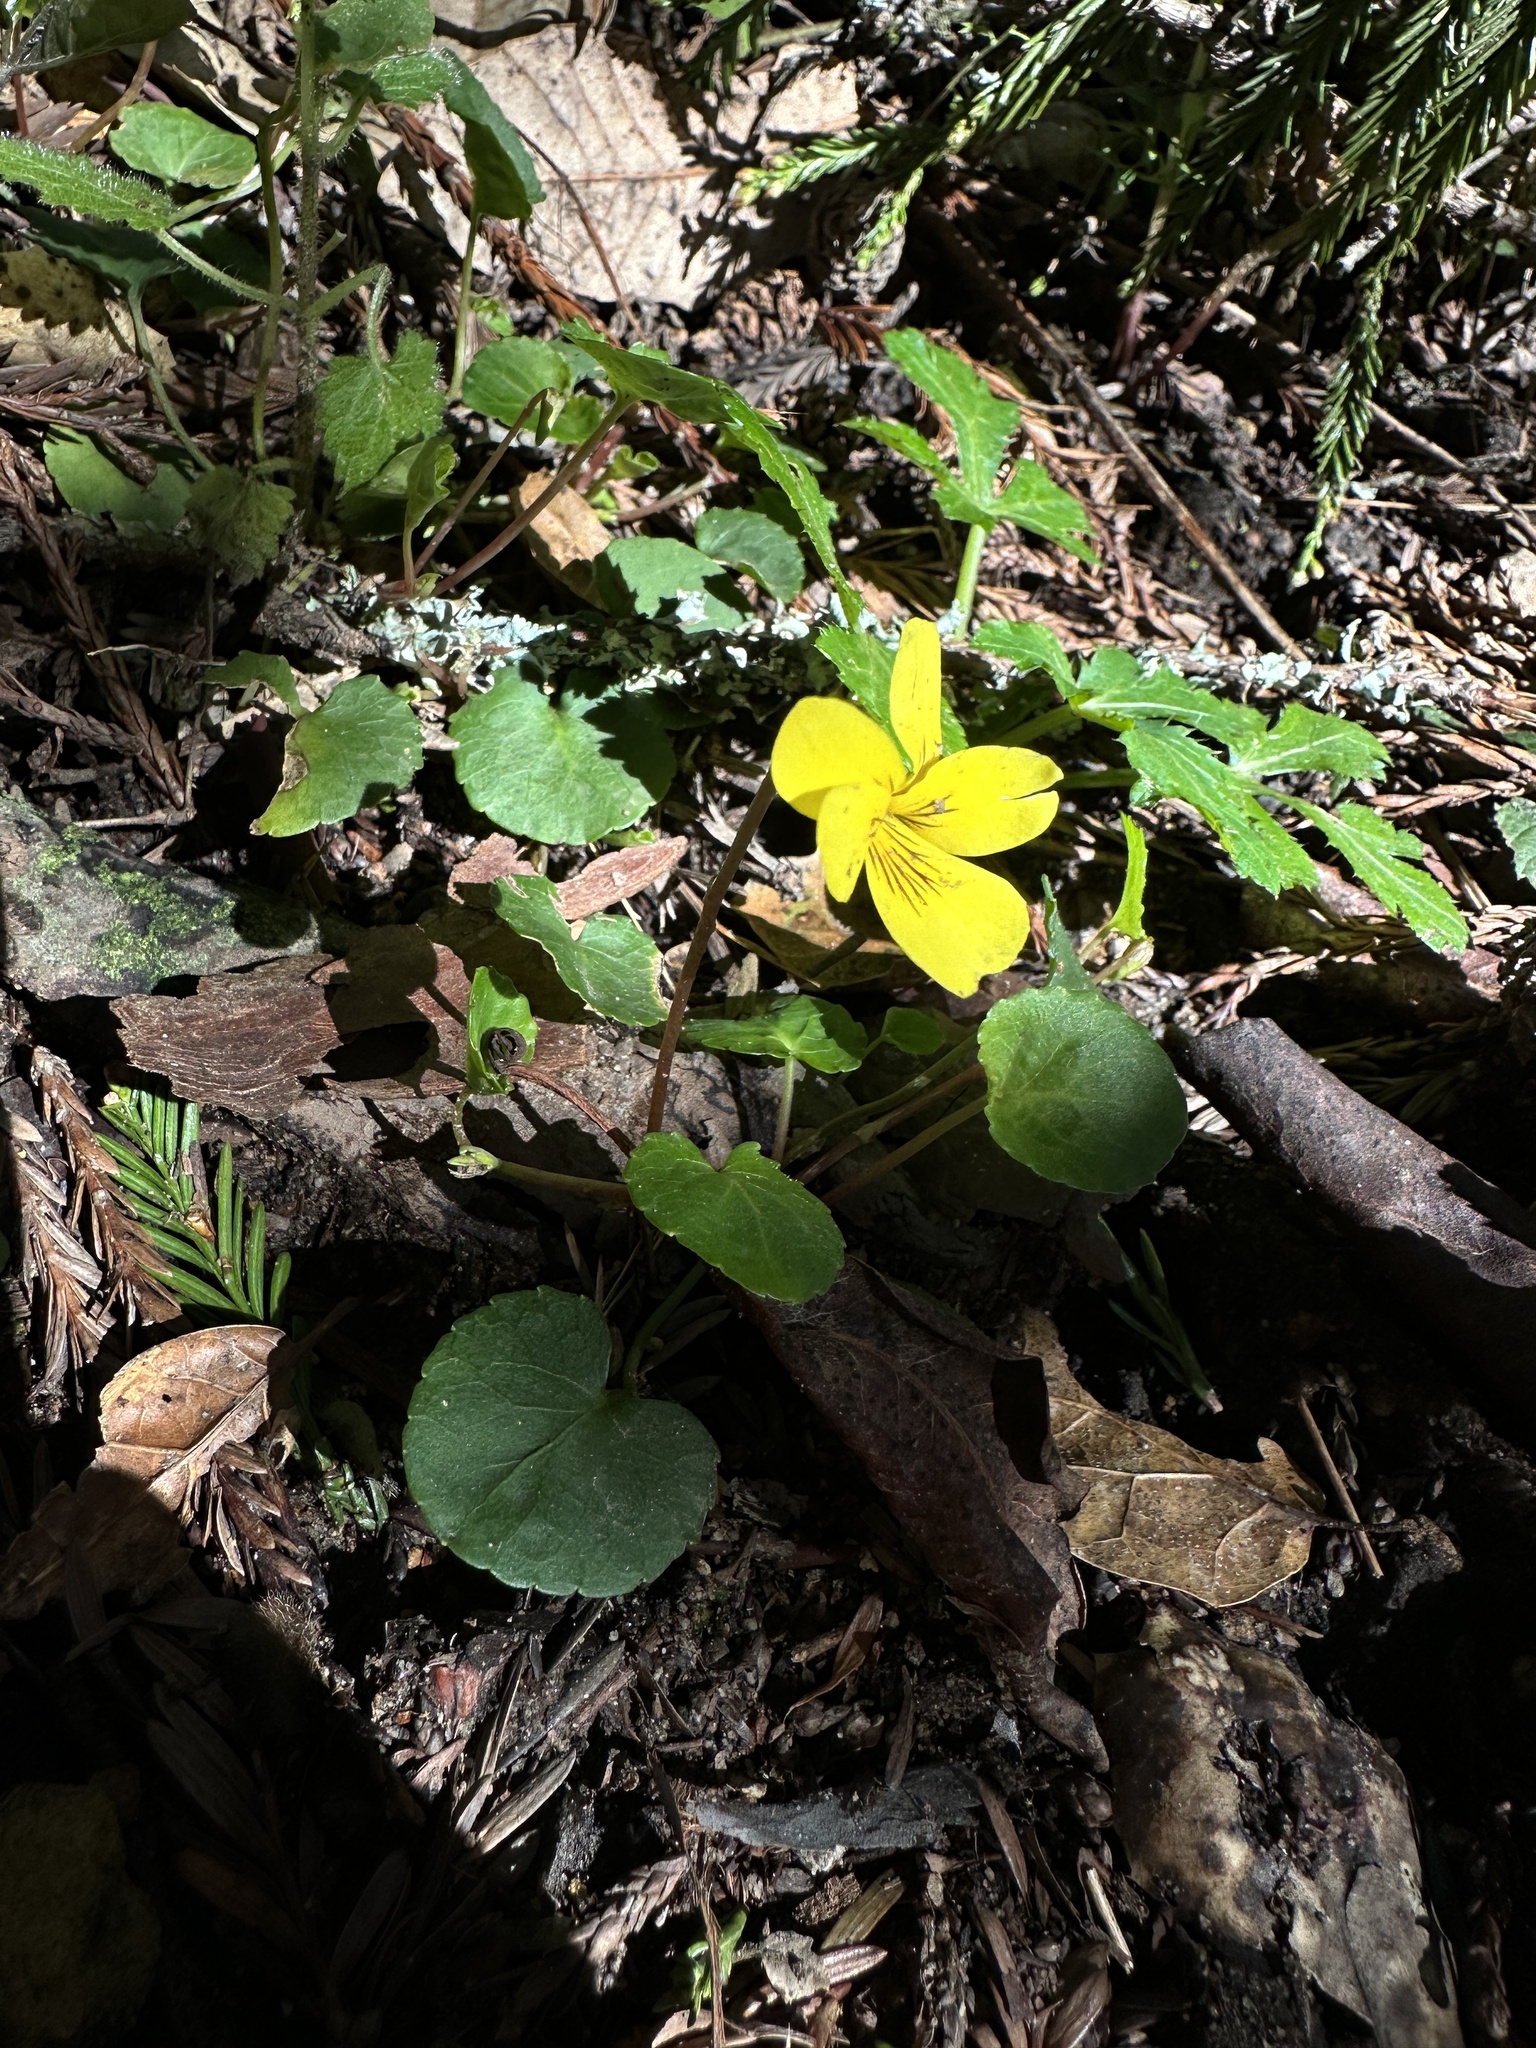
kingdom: Plantae
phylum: Tracheophyta
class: Magnoliopsida
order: Malpighiales
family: Violaceae
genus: Viola
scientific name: Viola sempervirens
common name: Evergreen violet
